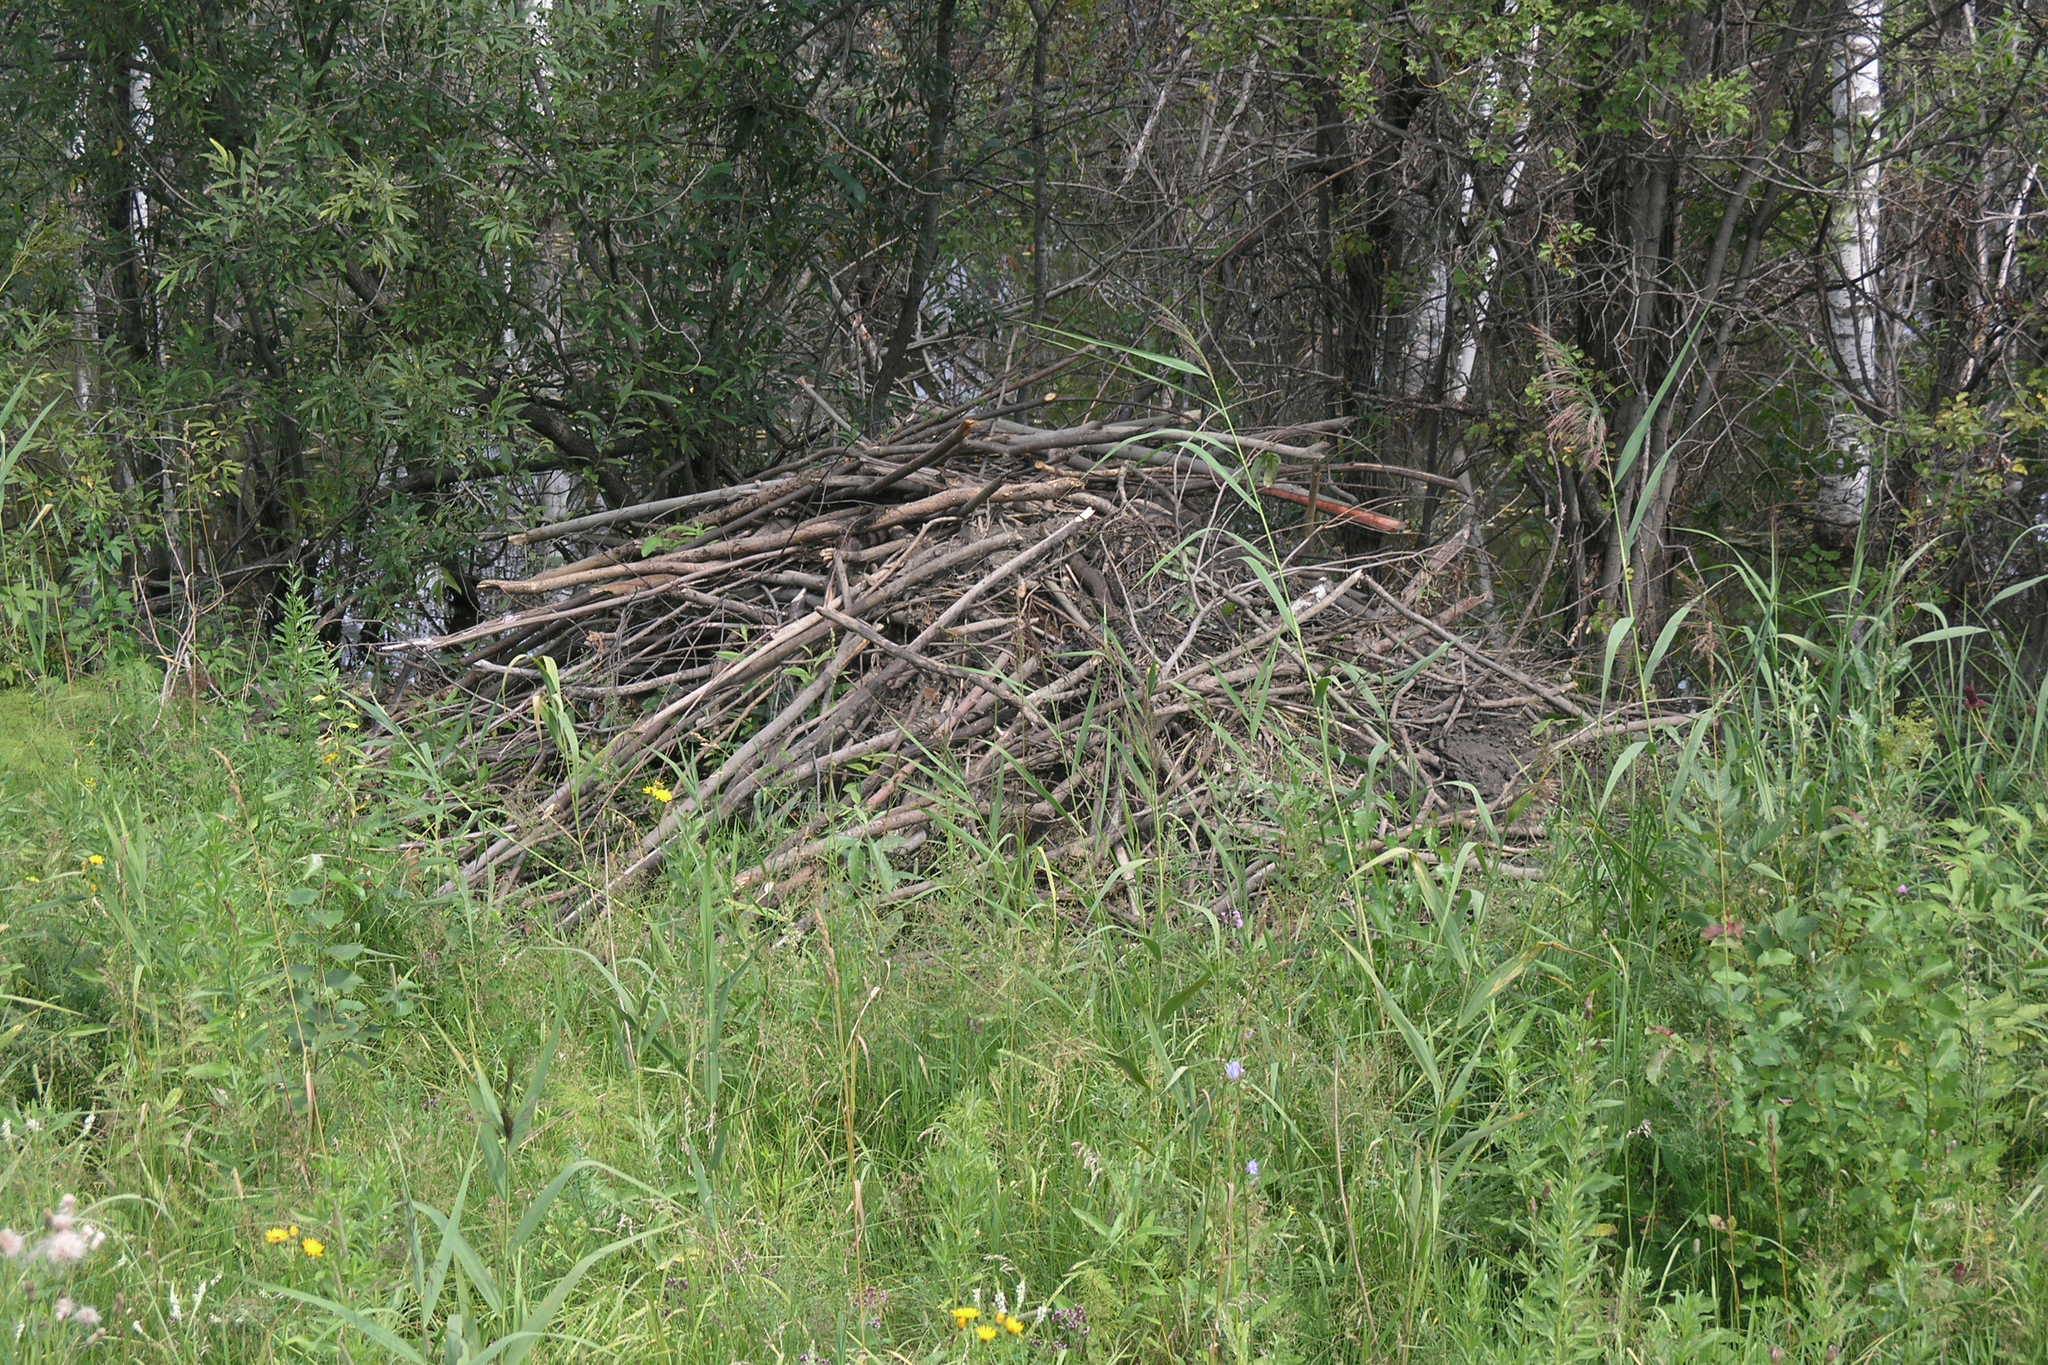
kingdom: Animalia
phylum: Chordata
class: Mammalia
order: Rodentia
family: Castoridae
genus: Castor
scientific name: Castor fiber
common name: Eurasian beaver
